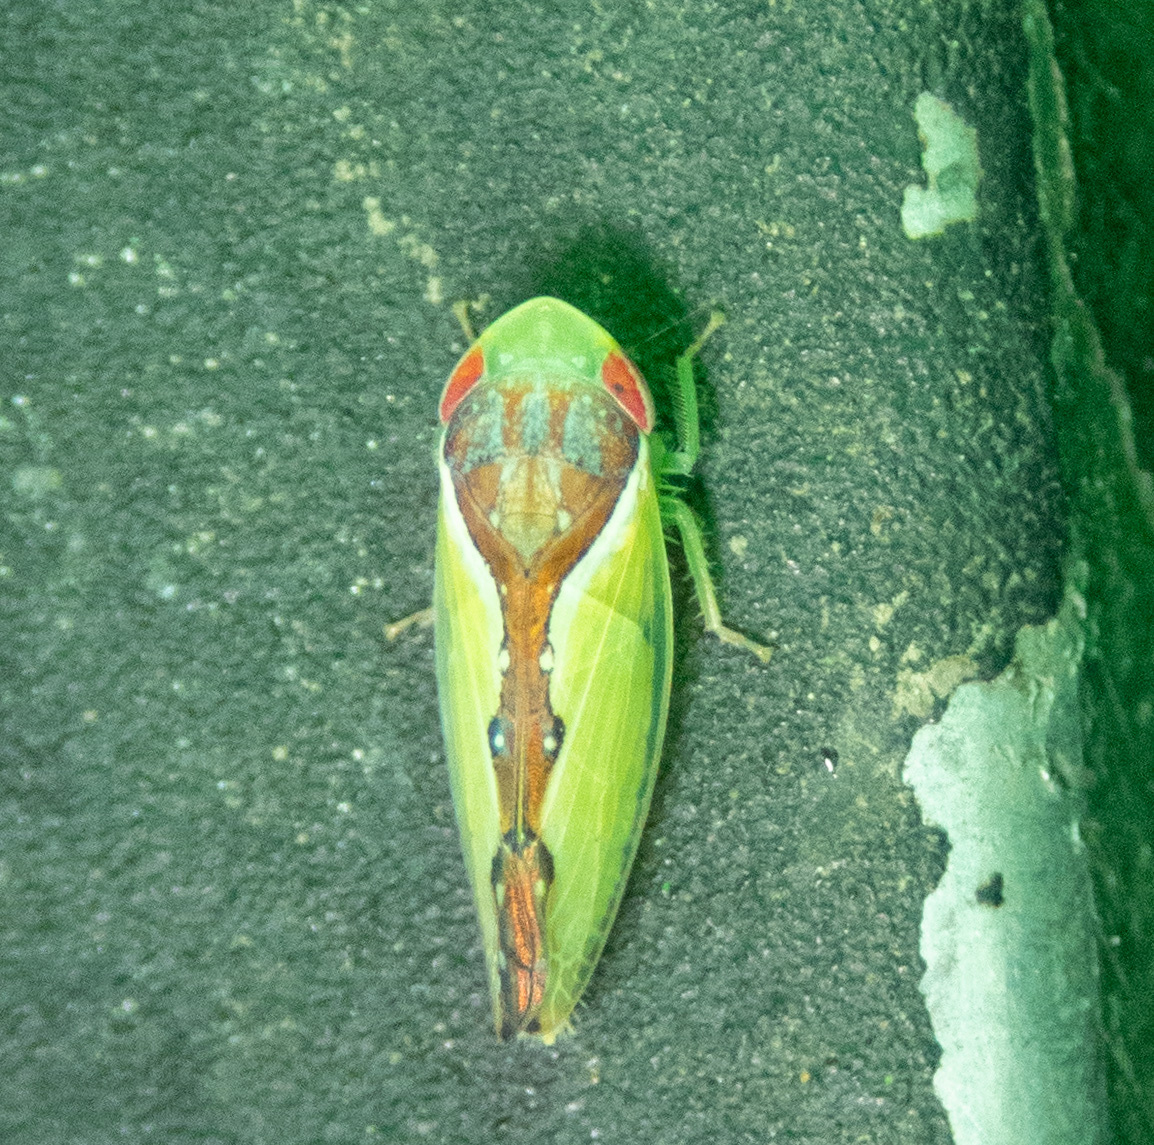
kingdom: Animalia
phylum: Arthropoda
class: Insecta
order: Hemiptera
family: Cicadellidae
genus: Omansobara ing
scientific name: Omansobara ing Omansobara palliolata
